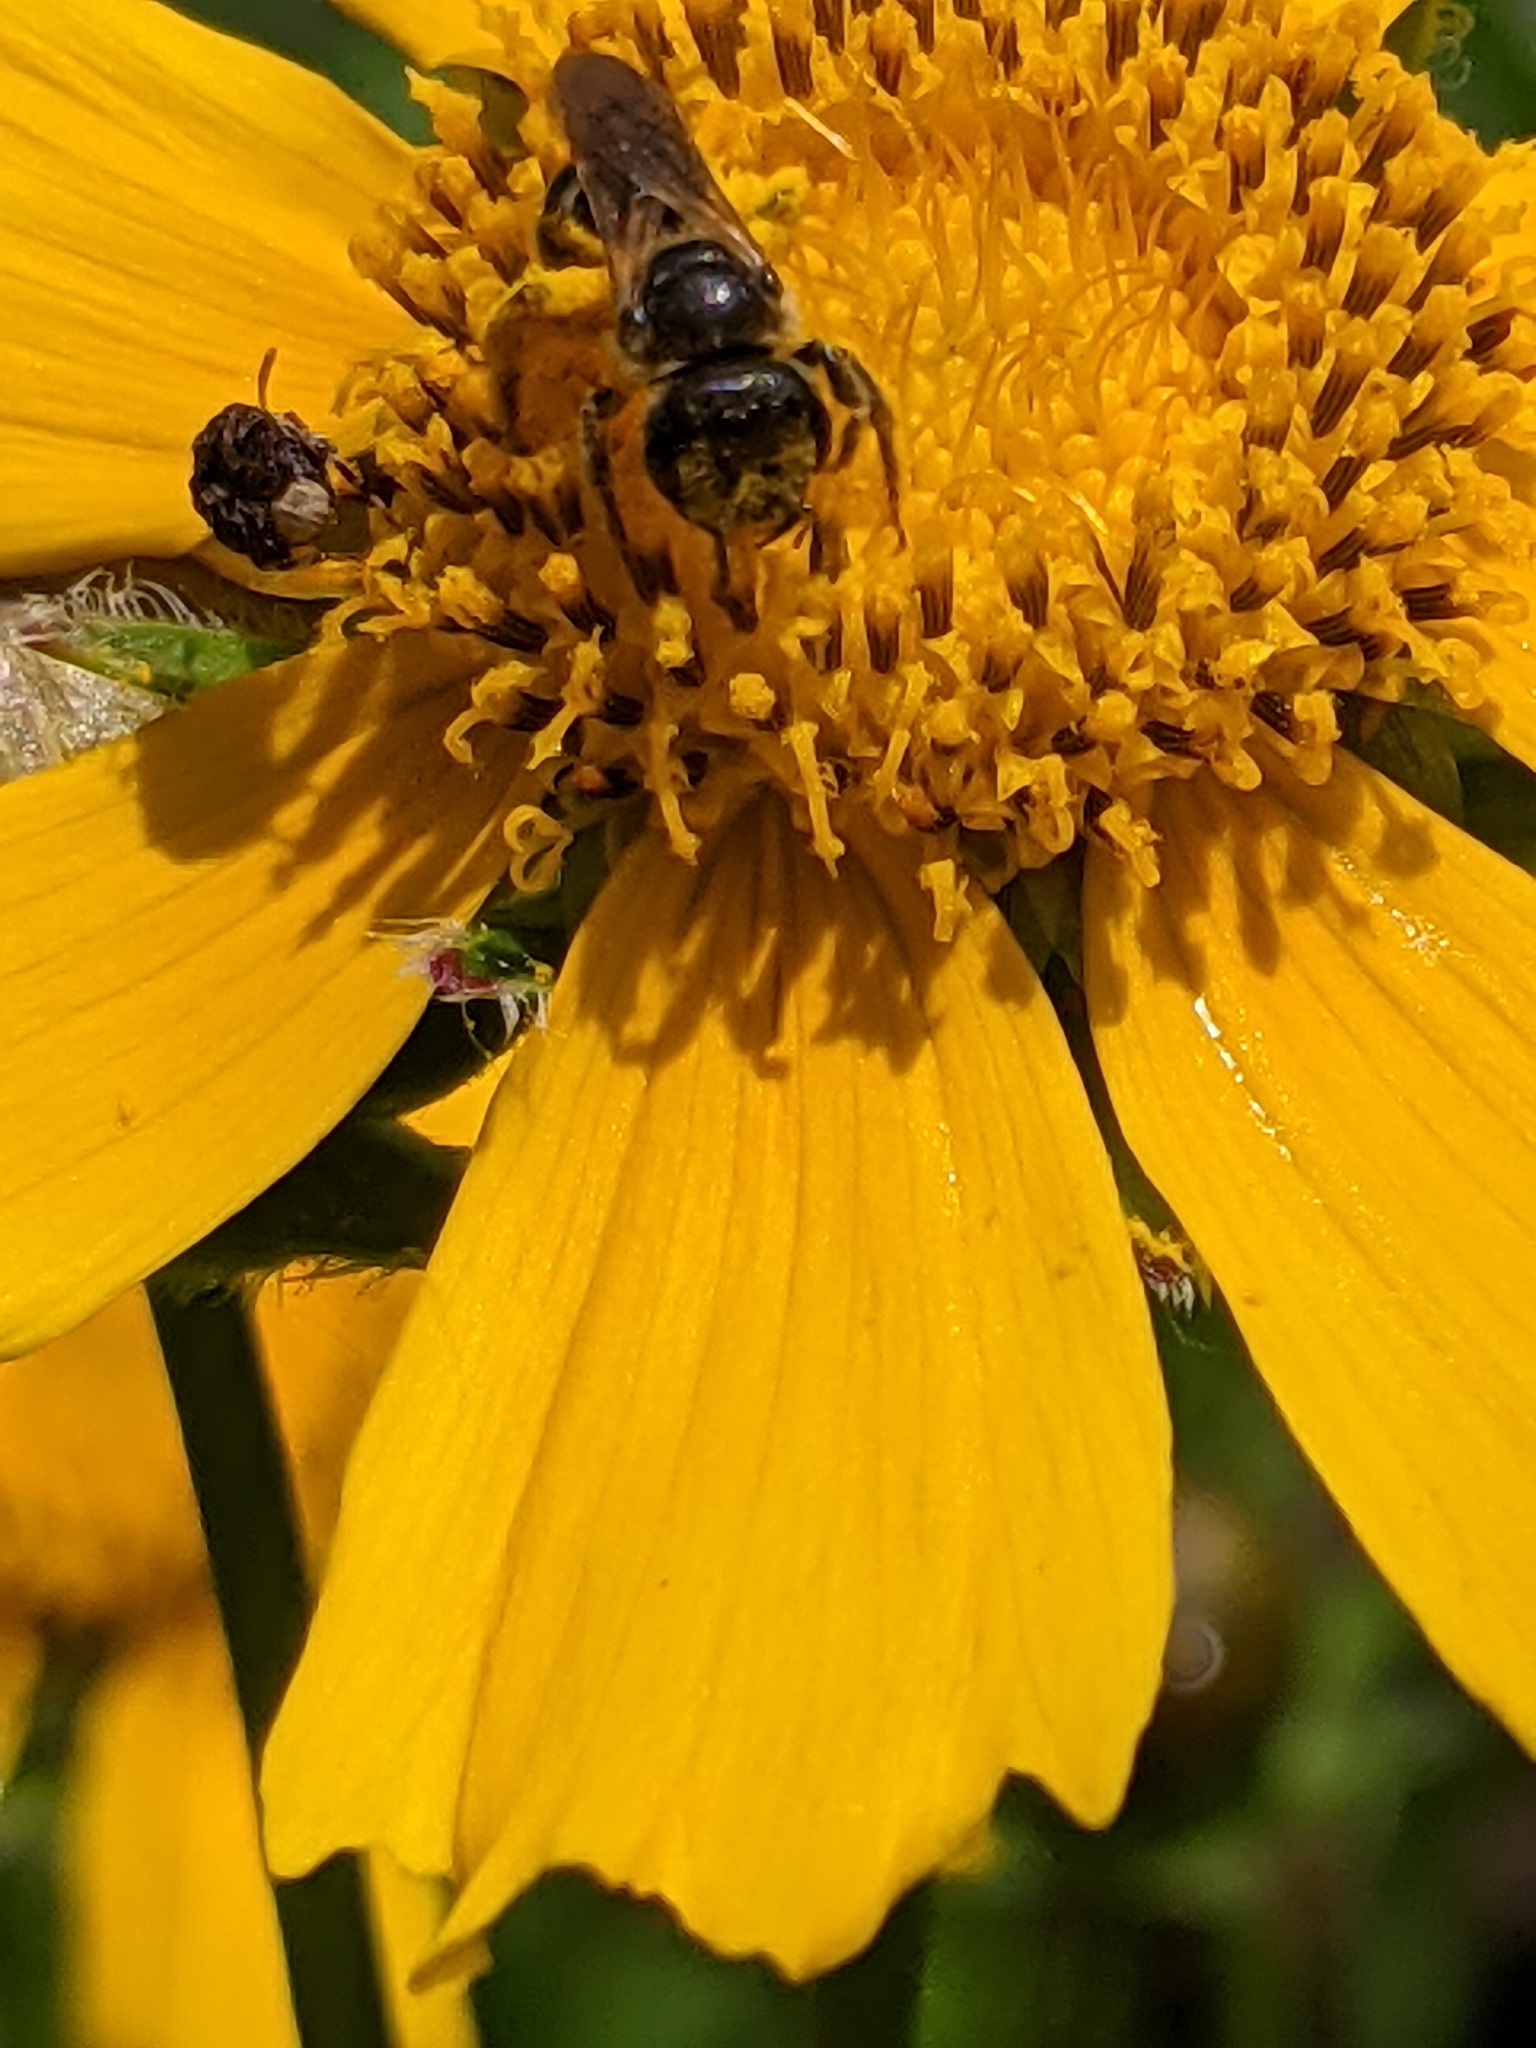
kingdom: Animalia
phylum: Arthropoda
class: Insecta
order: Hymenoptera
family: Halictidae
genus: Halictus
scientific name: Halictus ligatus
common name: Ligated furrow bee
